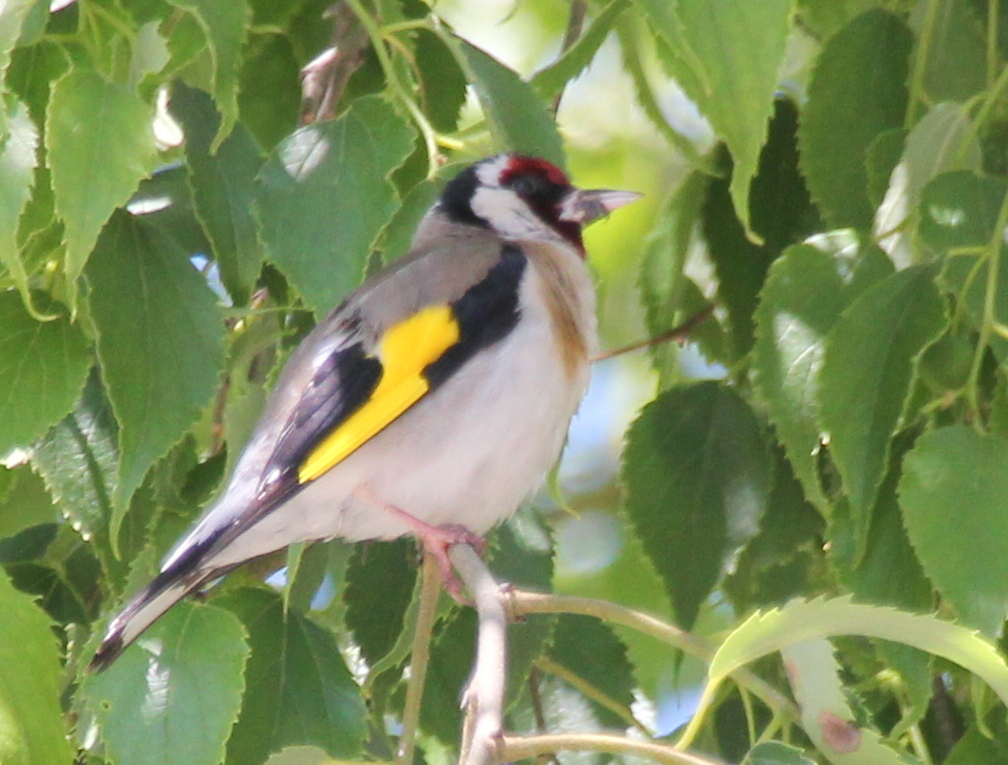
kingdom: Animalia
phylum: Chordata
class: Aves
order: Passeriformes
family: Fringillidae
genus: Carduelis
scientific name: Carduelis carduelis
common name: European goldfinch
